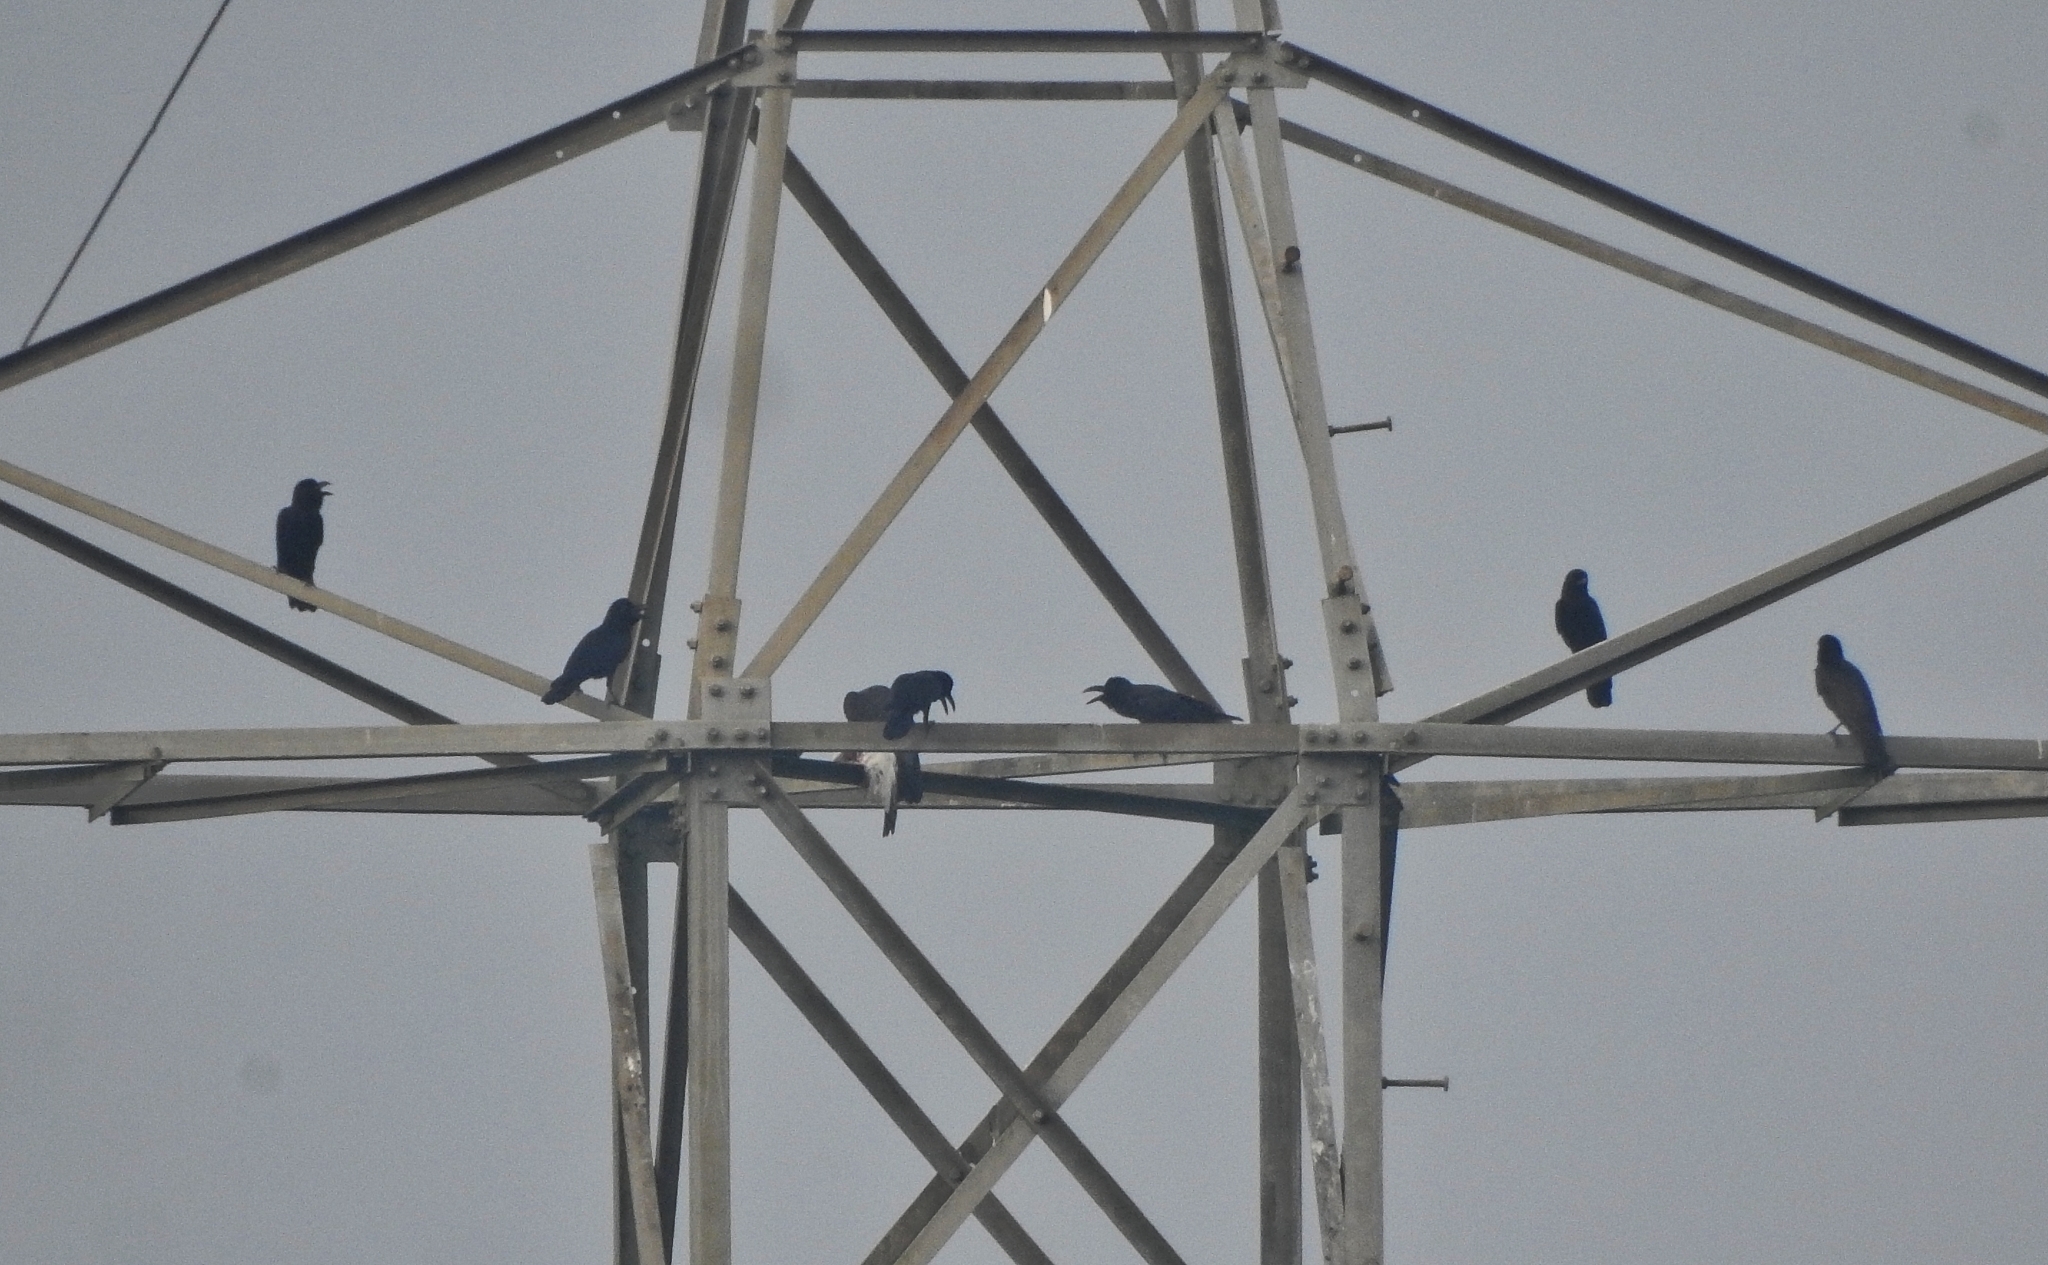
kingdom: Animalia
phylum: Chordata
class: Aves
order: Passeriformes
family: Corvidae
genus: Corvus
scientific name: Corvus splendens
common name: House crow
